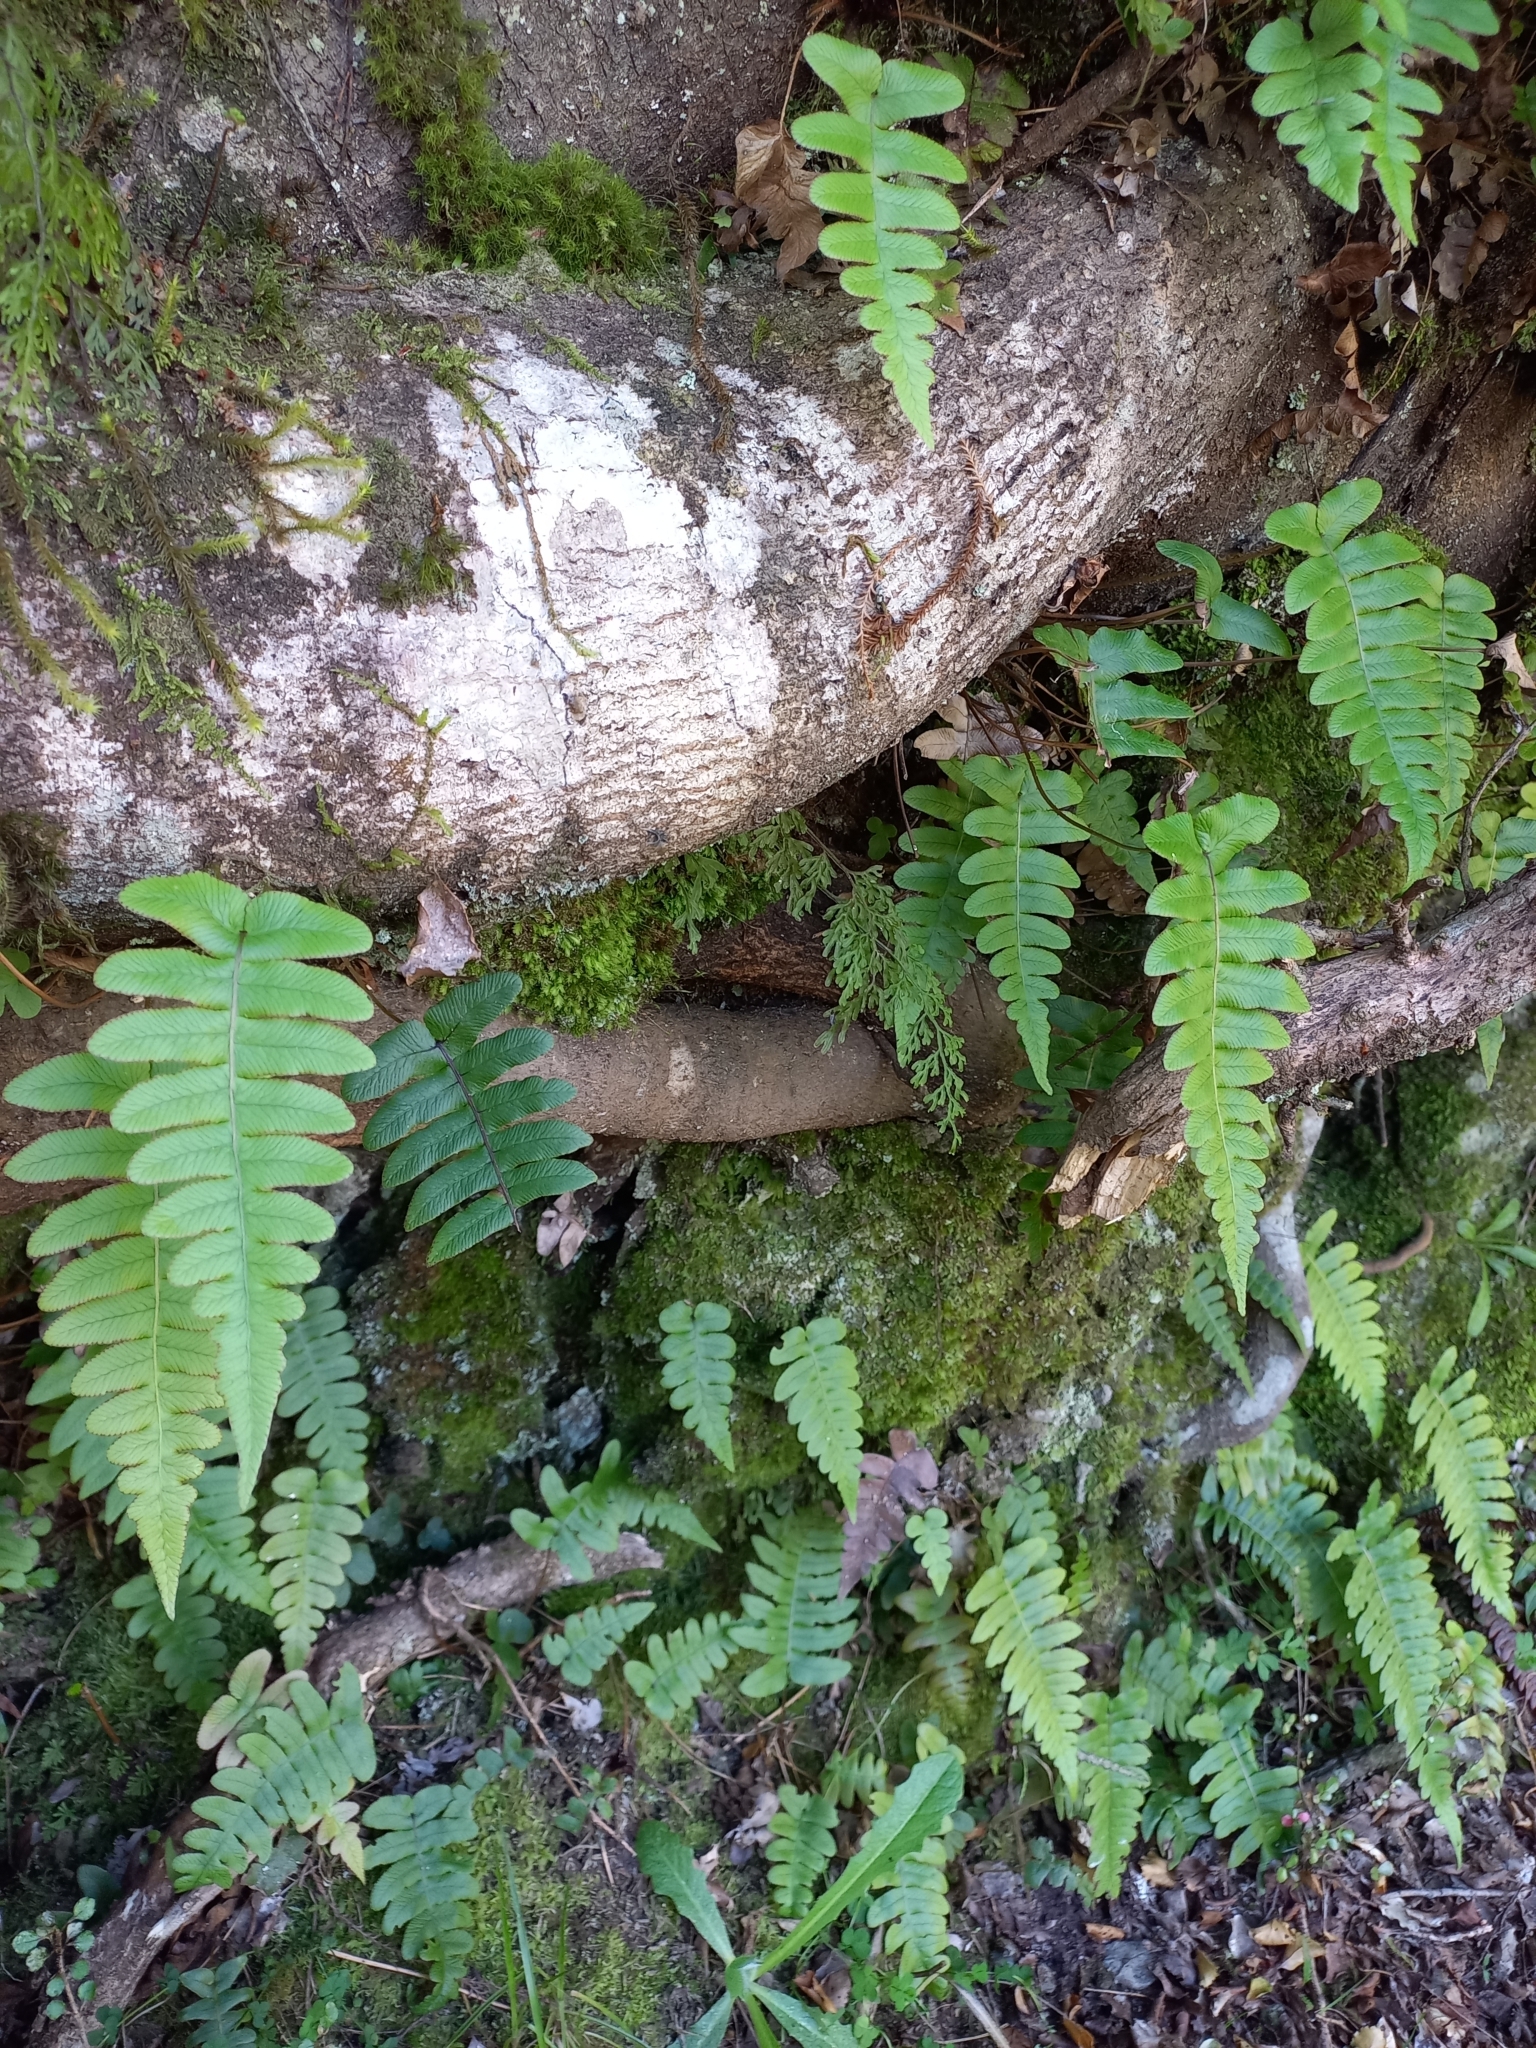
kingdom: Plantae
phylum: Tracheophyta
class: Polypodiopsida
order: Polypodiales
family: Blechnaceae
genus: Cranfillia
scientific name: Cranfillia vulcanica
